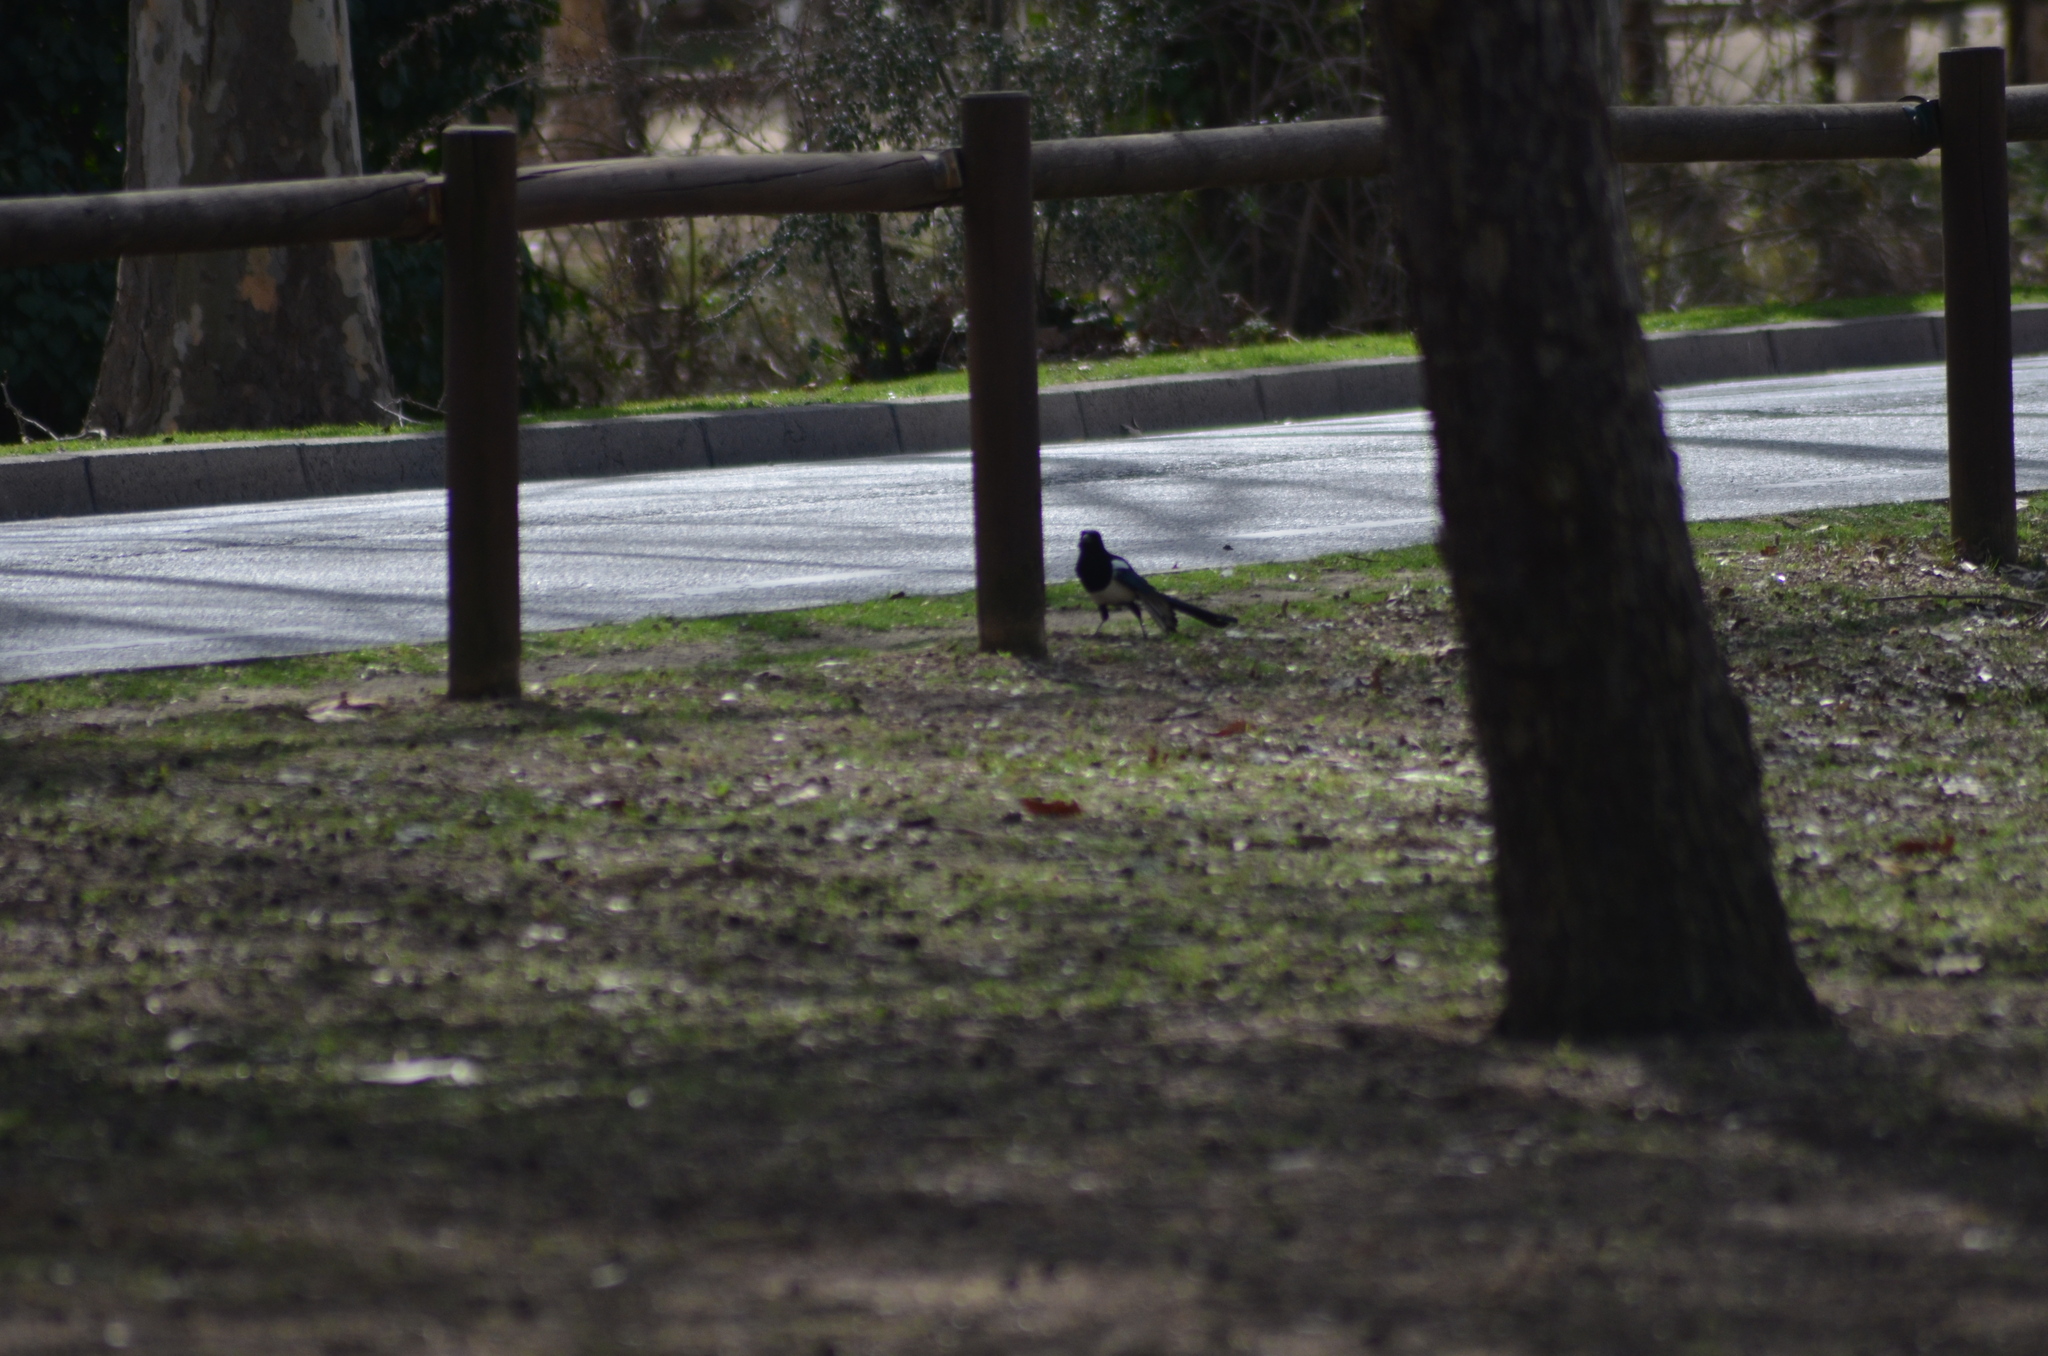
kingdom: Animalia
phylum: Chordata
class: Aves
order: Passeriformes
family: Corvidae
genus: Pica
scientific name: Pica pica
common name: Eurasian magpie
